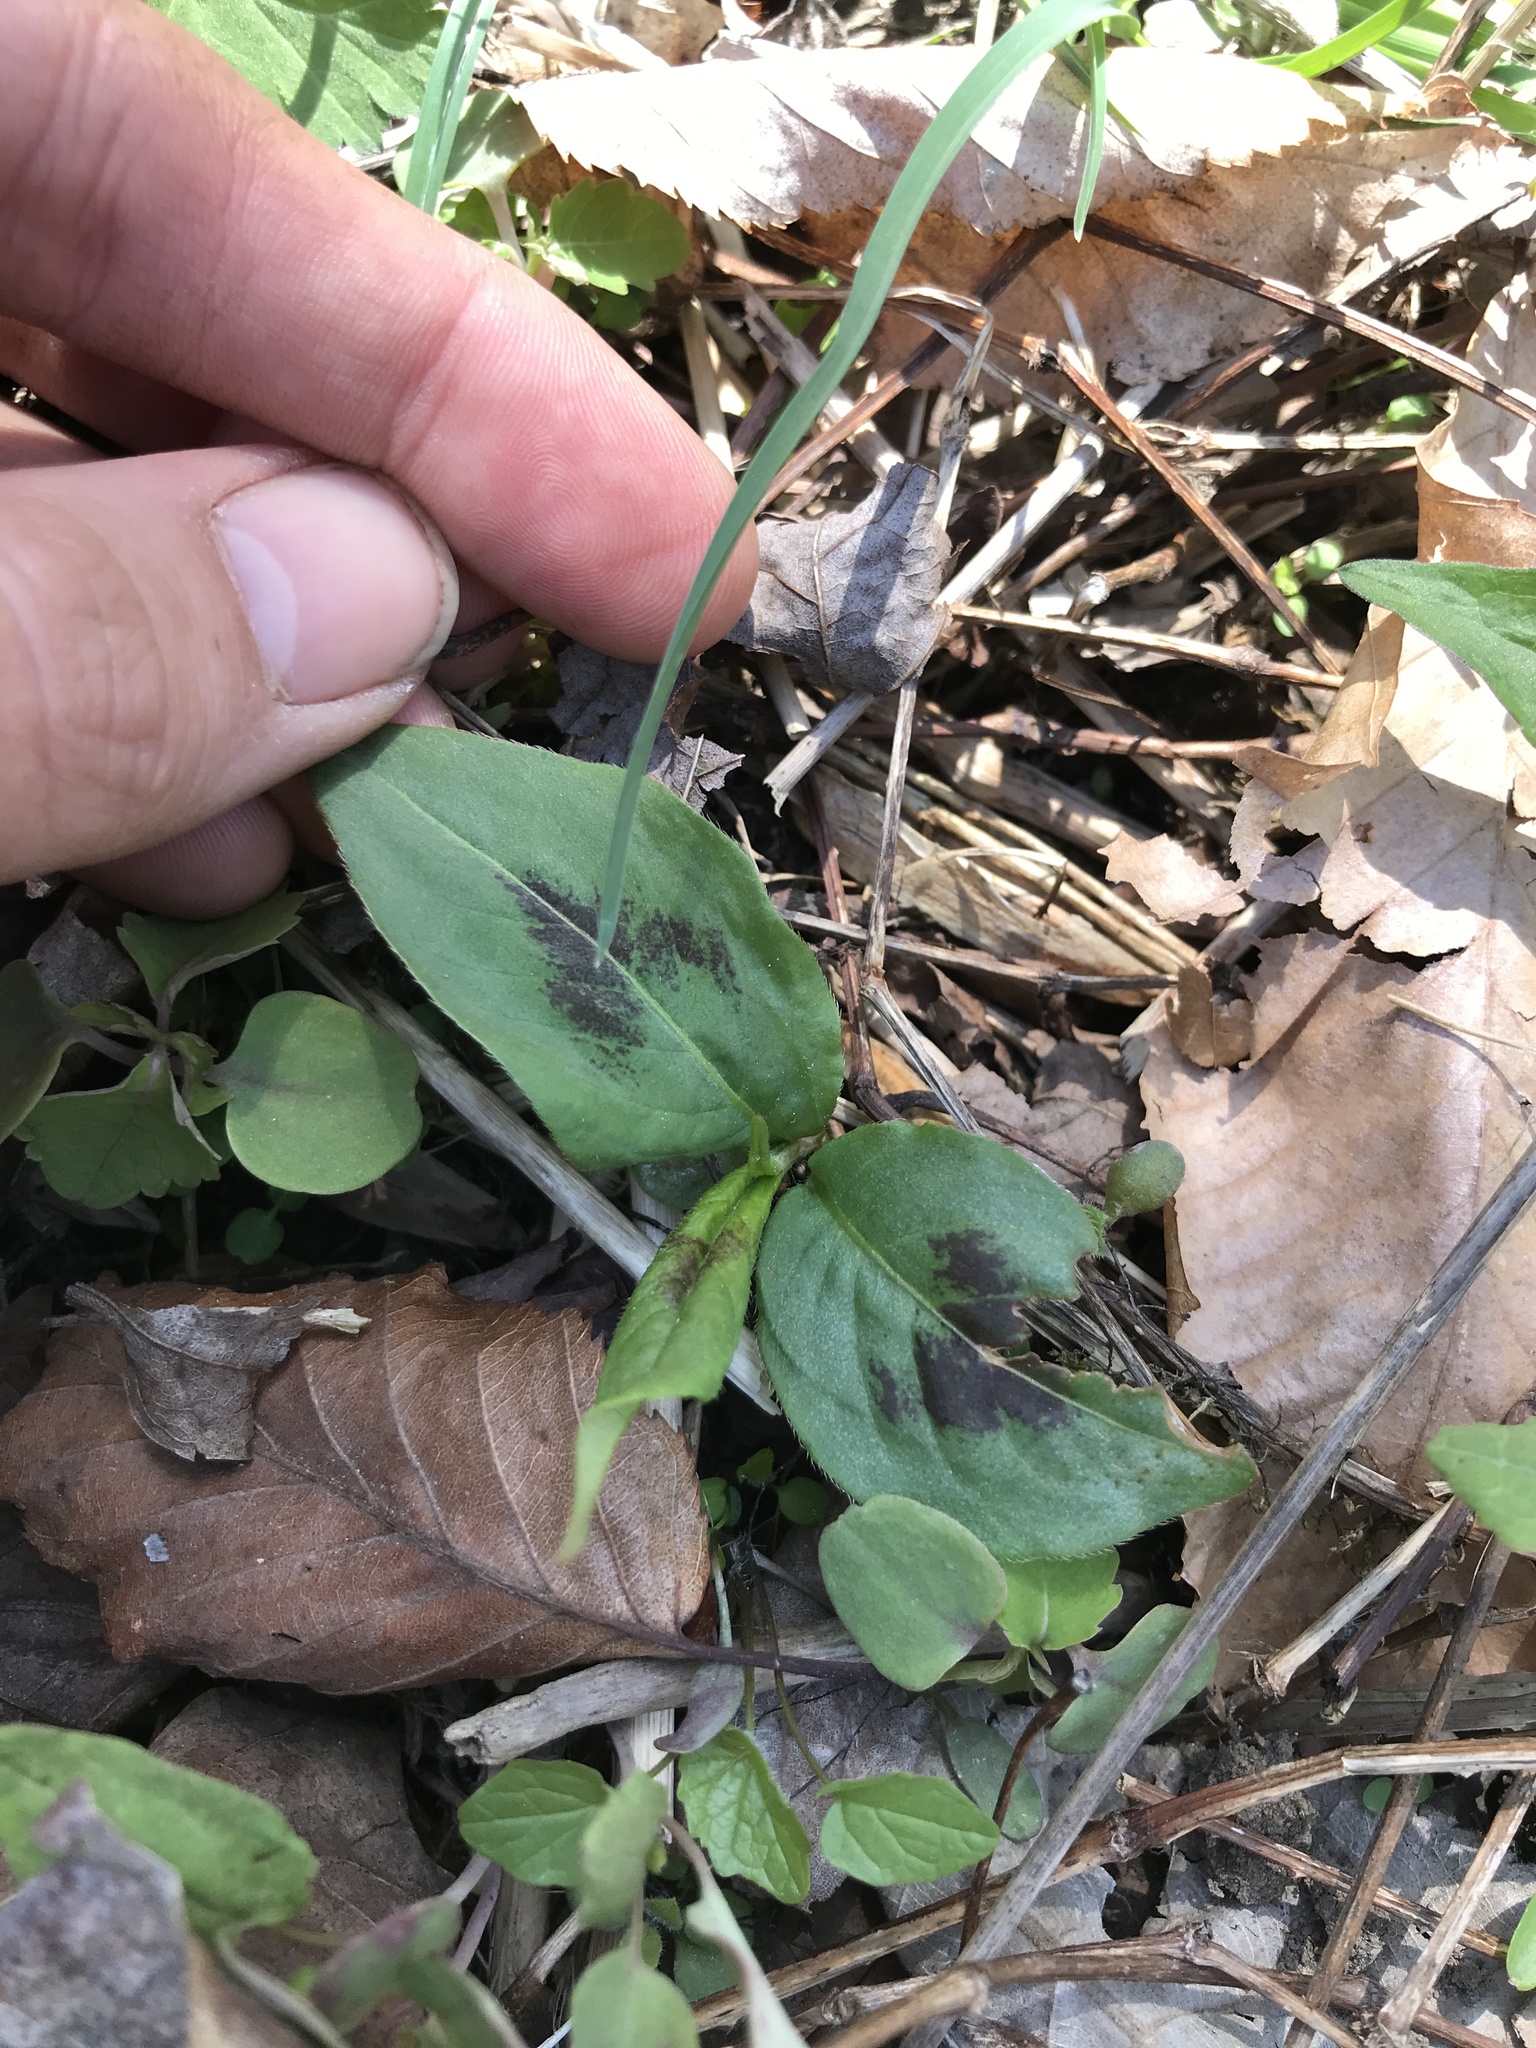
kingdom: Plantae
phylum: Tracheophyta
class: Magnoliopsida
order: Caryophyllales
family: Polygonaceae
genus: Persicaria
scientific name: Persicaria virginiana
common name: Jumpseed
